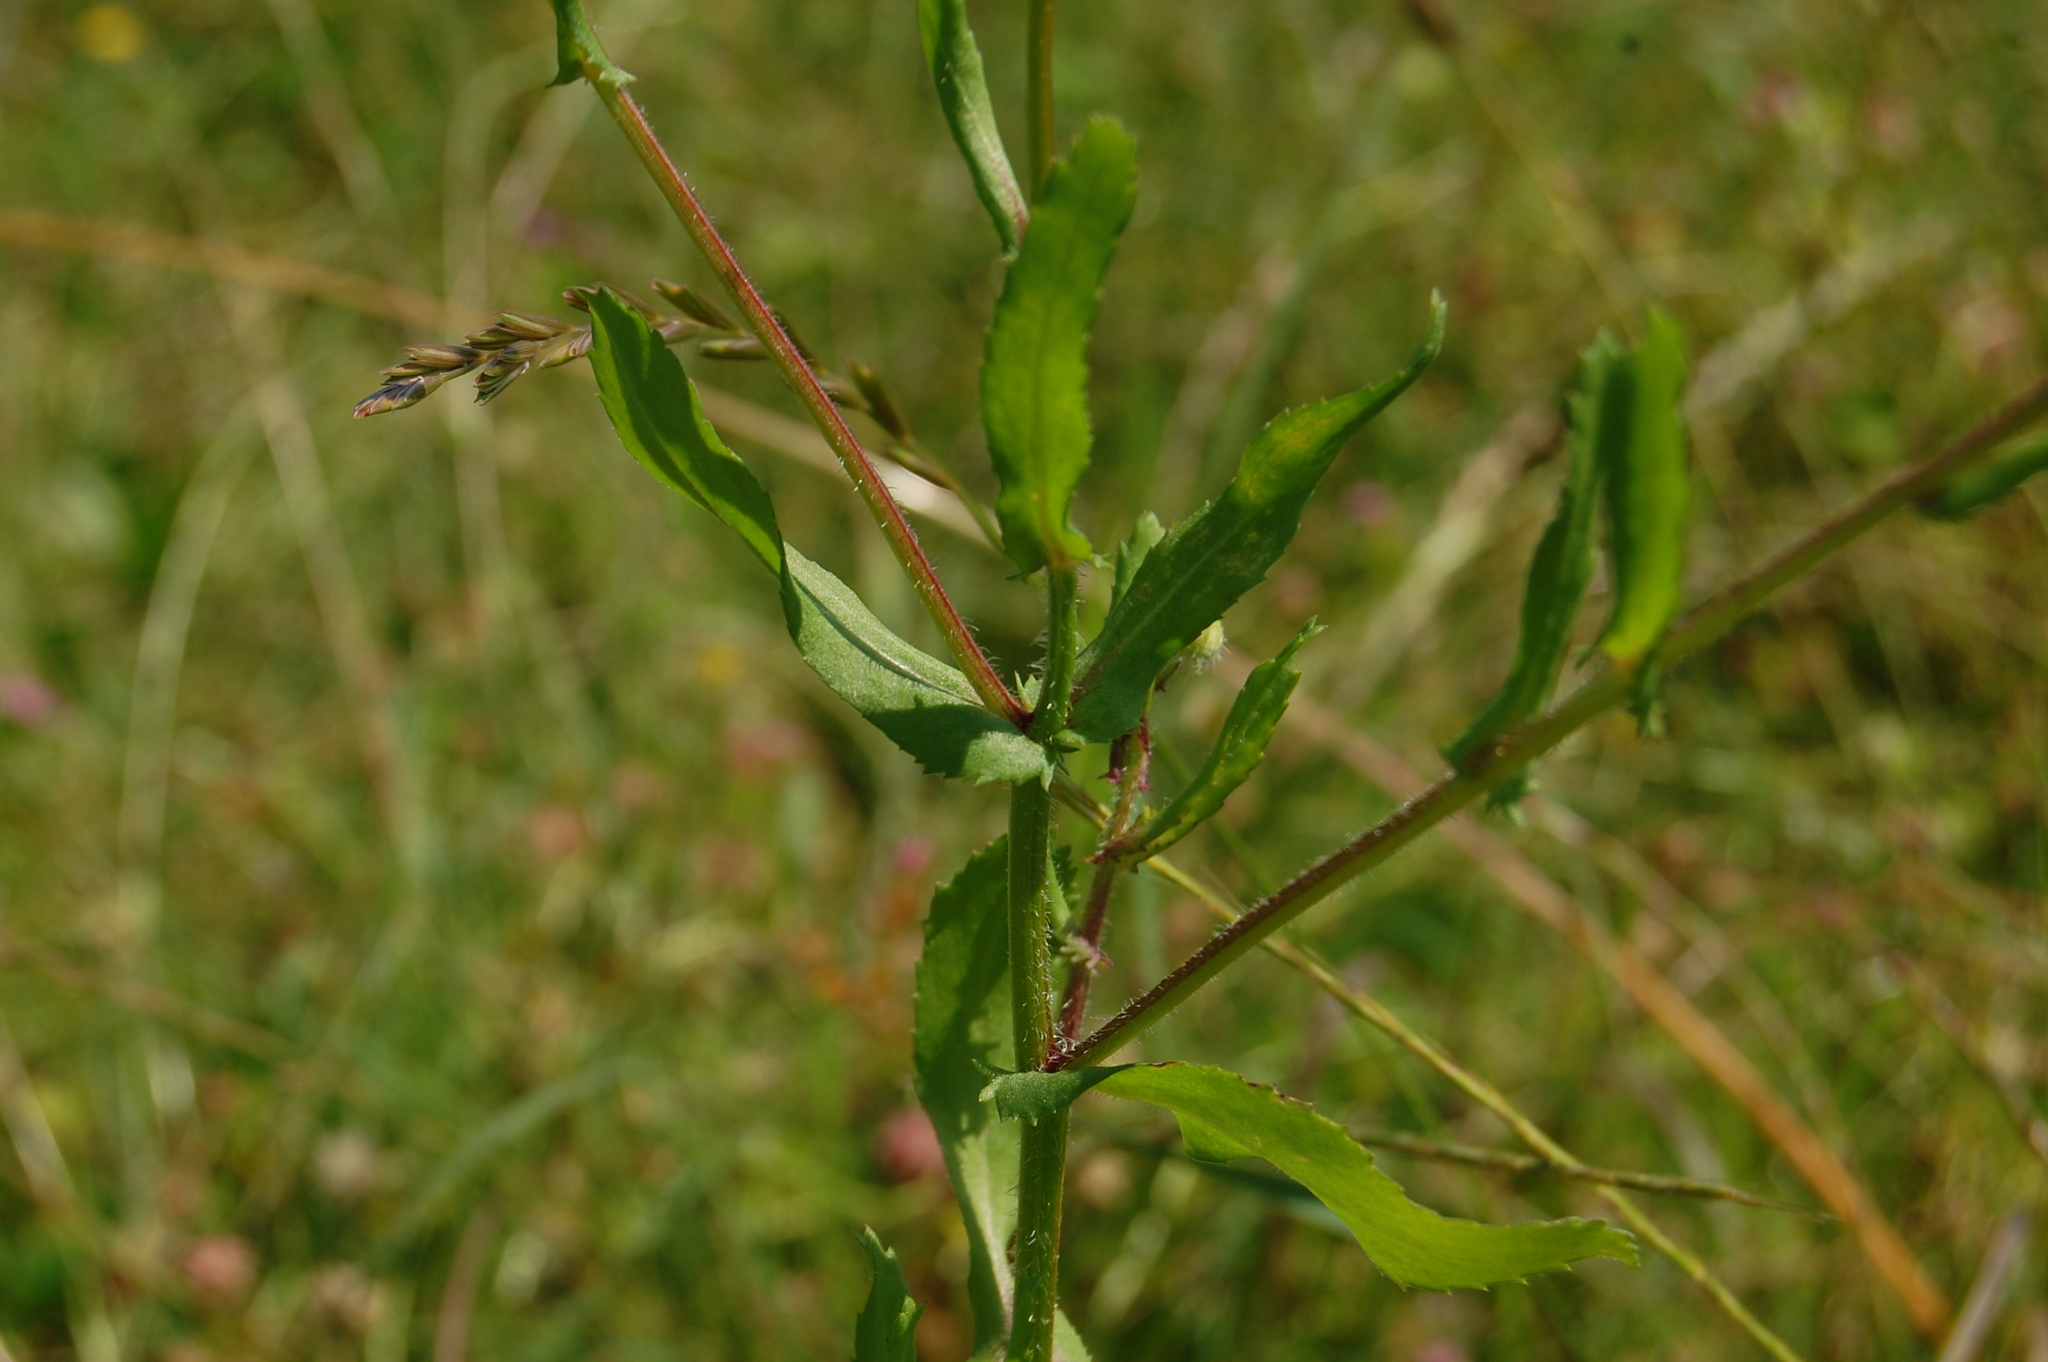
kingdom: Plantae
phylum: Tracheophyta
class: Magnoliopsida
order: Asterales
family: Asteraceae
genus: Coleostephus
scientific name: Coleostephus myconis
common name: Mediterranean marigold
